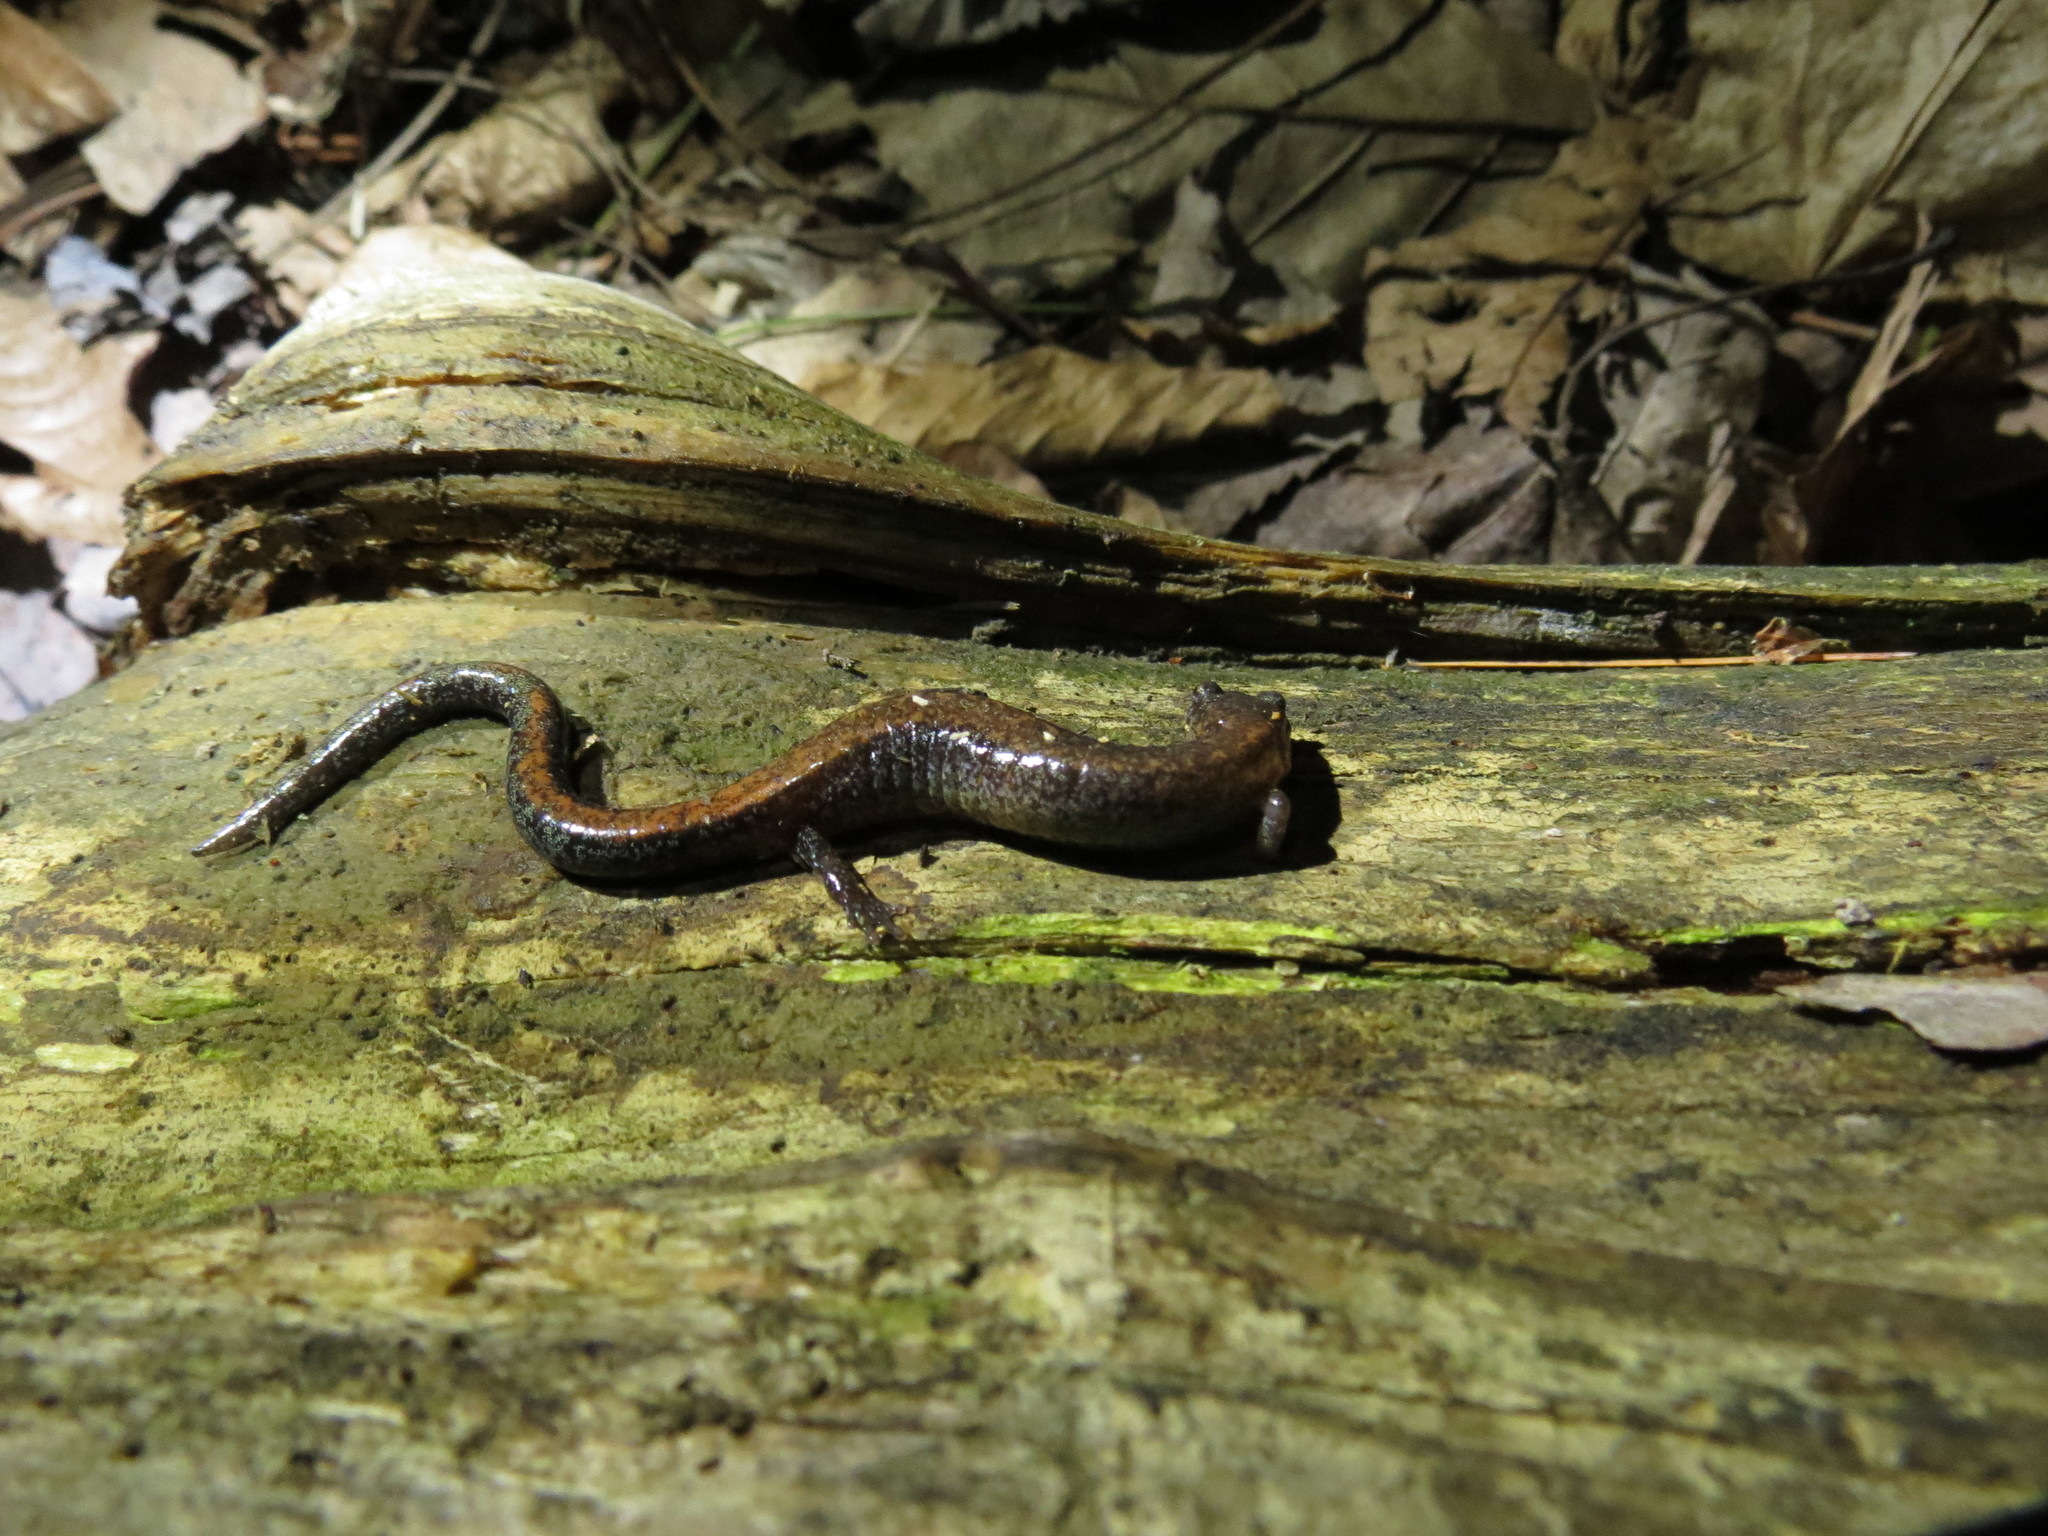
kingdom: Animalia
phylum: Chordata
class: Amphibia
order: Caudata
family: Plethodontidae
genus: Plethodon
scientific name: Plethodon cinereus
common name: Redback salamander
